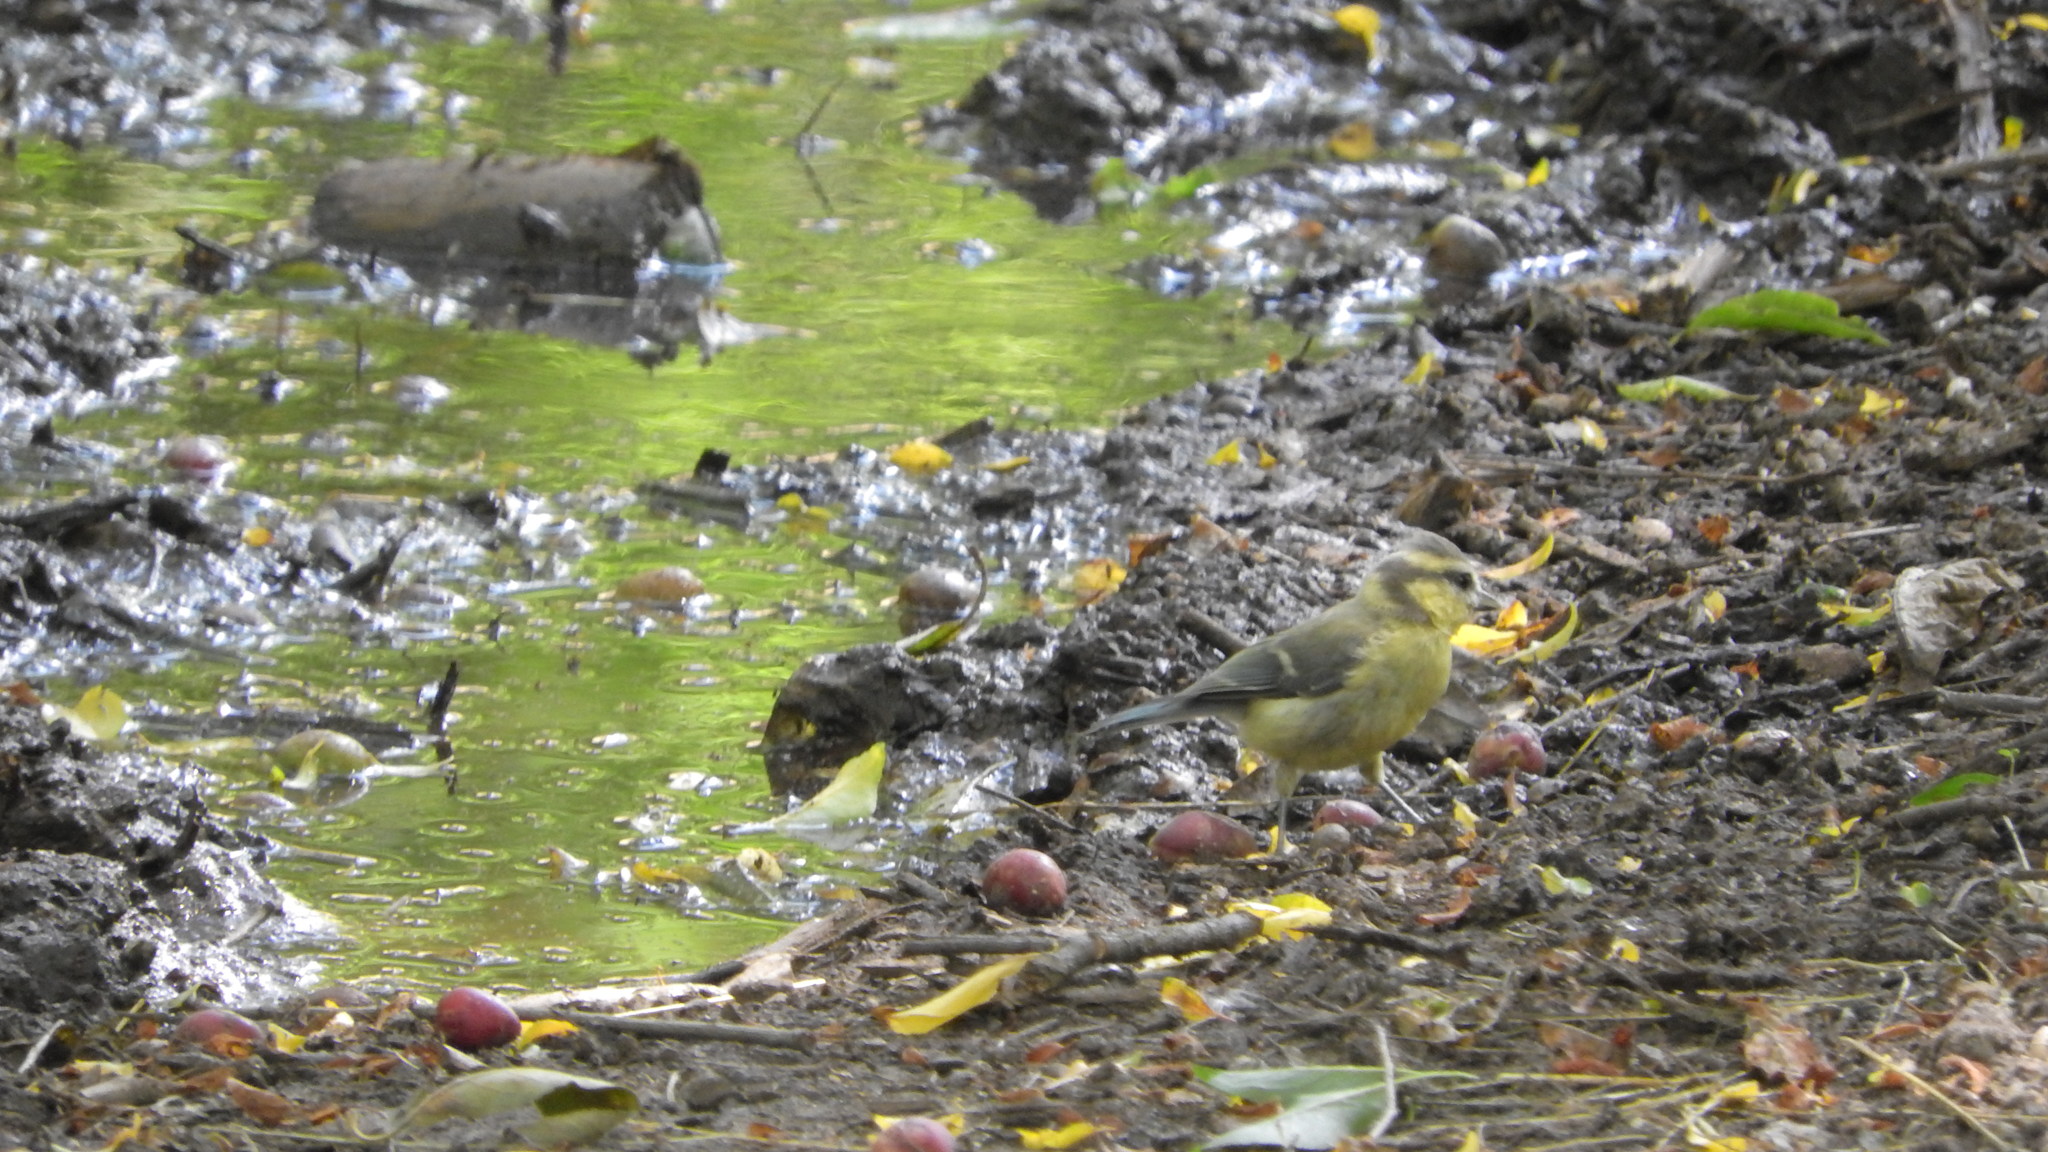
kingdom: Animalia
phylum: Chordata
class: Aves
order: Passeriformes
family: Paridae
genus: Cyanistes
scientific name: Cyanistes caeruleus
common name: Eurasian blue tit
